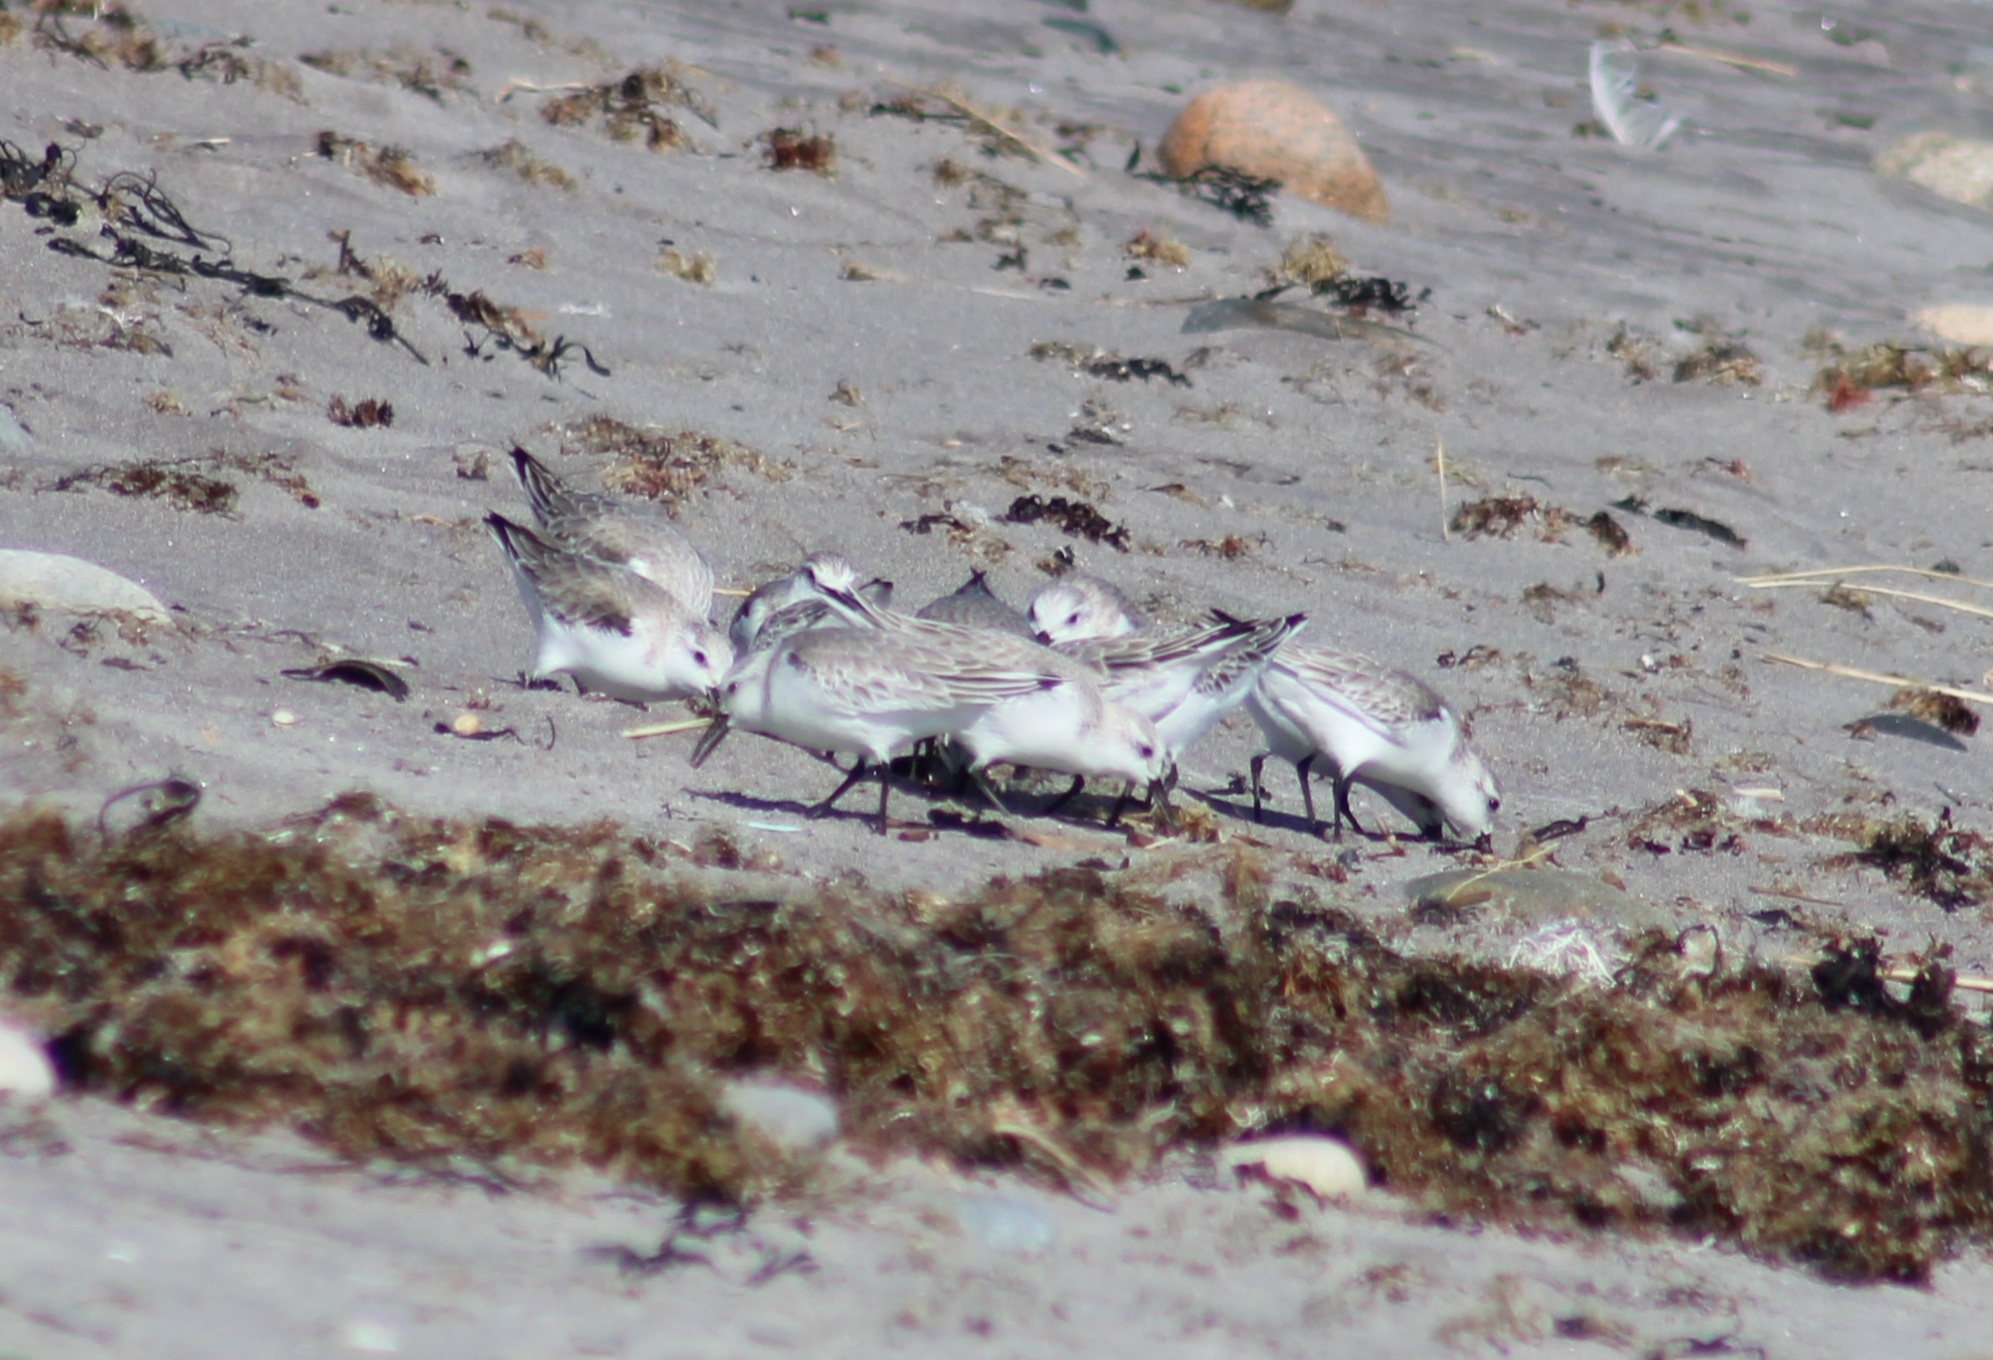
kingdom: Animalia
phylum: Chordata
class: Aves
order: Charadriiformes
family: Scolopacidae
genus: Calidris
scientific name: Calidris alba
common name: Sanderling
